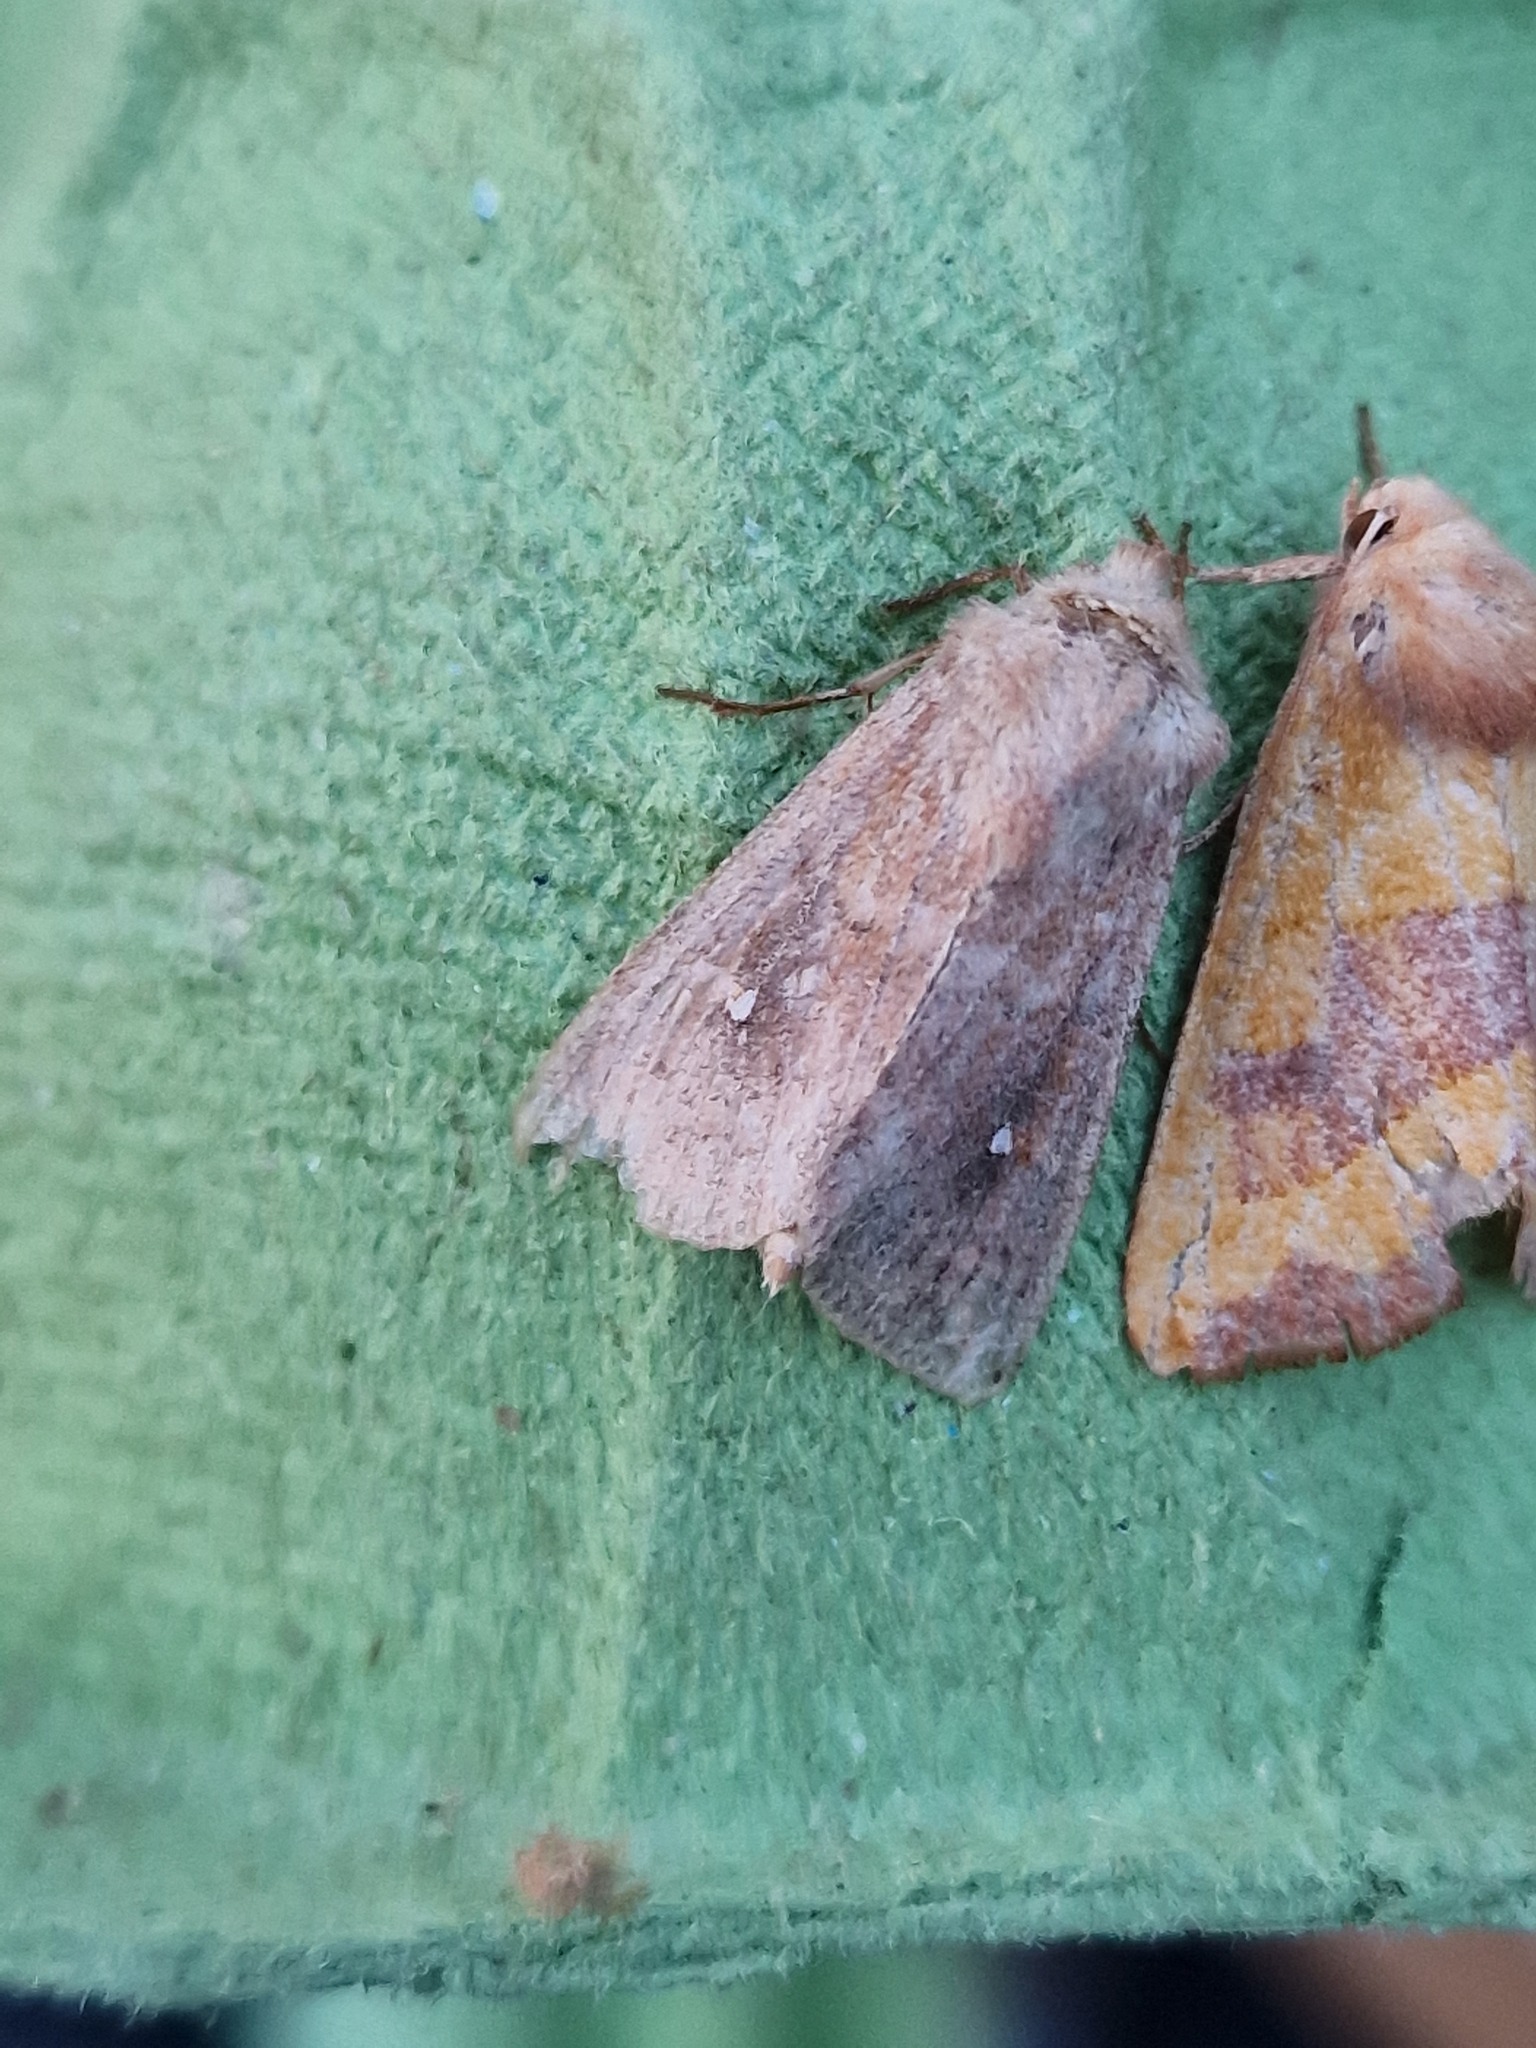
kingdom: Animalia
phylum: Arthropoda
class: Insecta
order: Lepidoptera
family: Noctuidae
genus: Mythimna
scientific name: Mythimna albipuncta
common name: White-point
